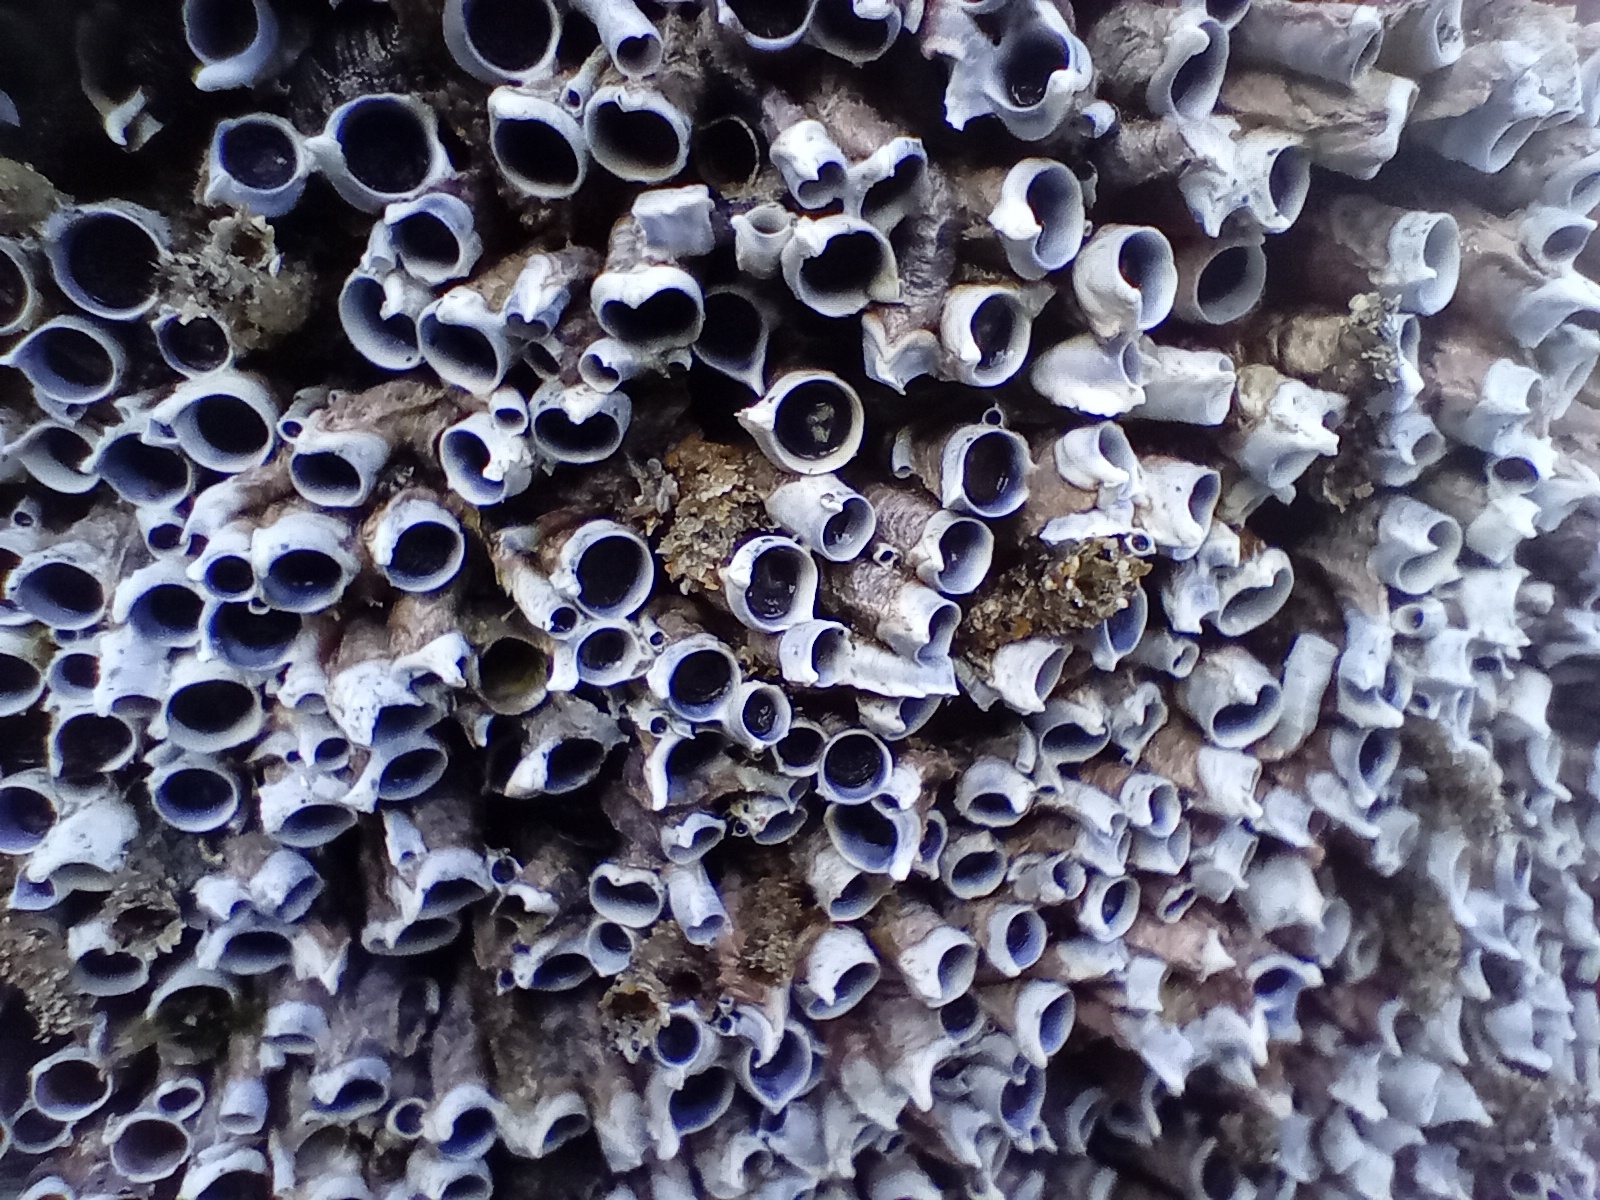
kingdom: Animalia
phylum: Annelida
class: Polychaeta
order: Sabellida
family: Serpulidae
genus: Spirobranchus
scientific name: Spirobranchus cariniferus
